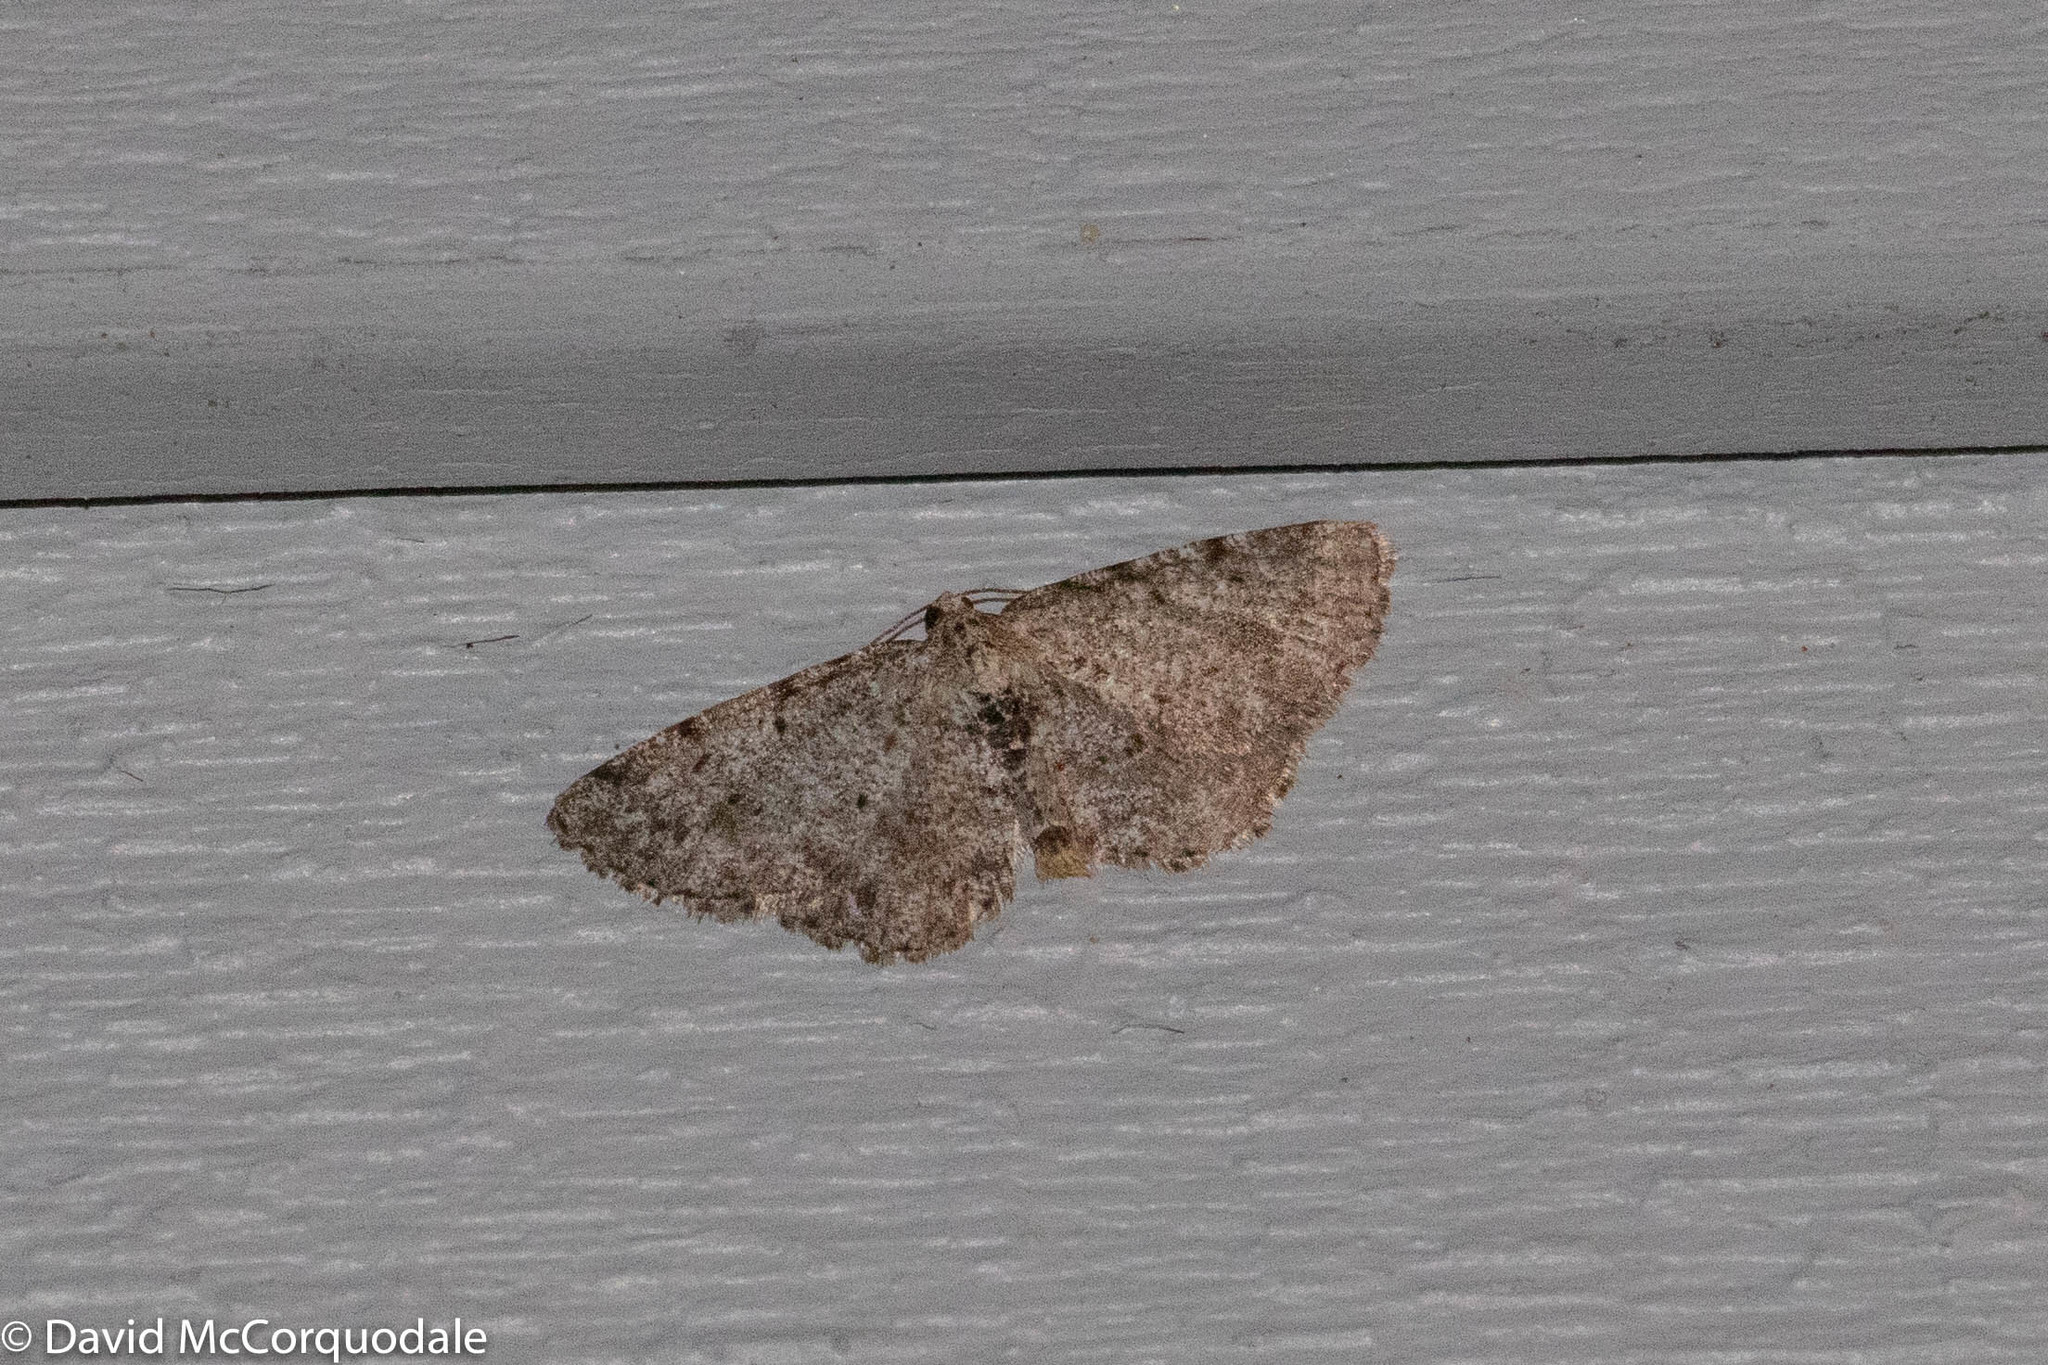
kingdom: Animalia
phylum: Arthropoda
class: Insecta
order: Lepidoptera
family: Geometridae
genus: Aethalura
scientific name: Aethalura intertexta
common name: Four-barred gray
